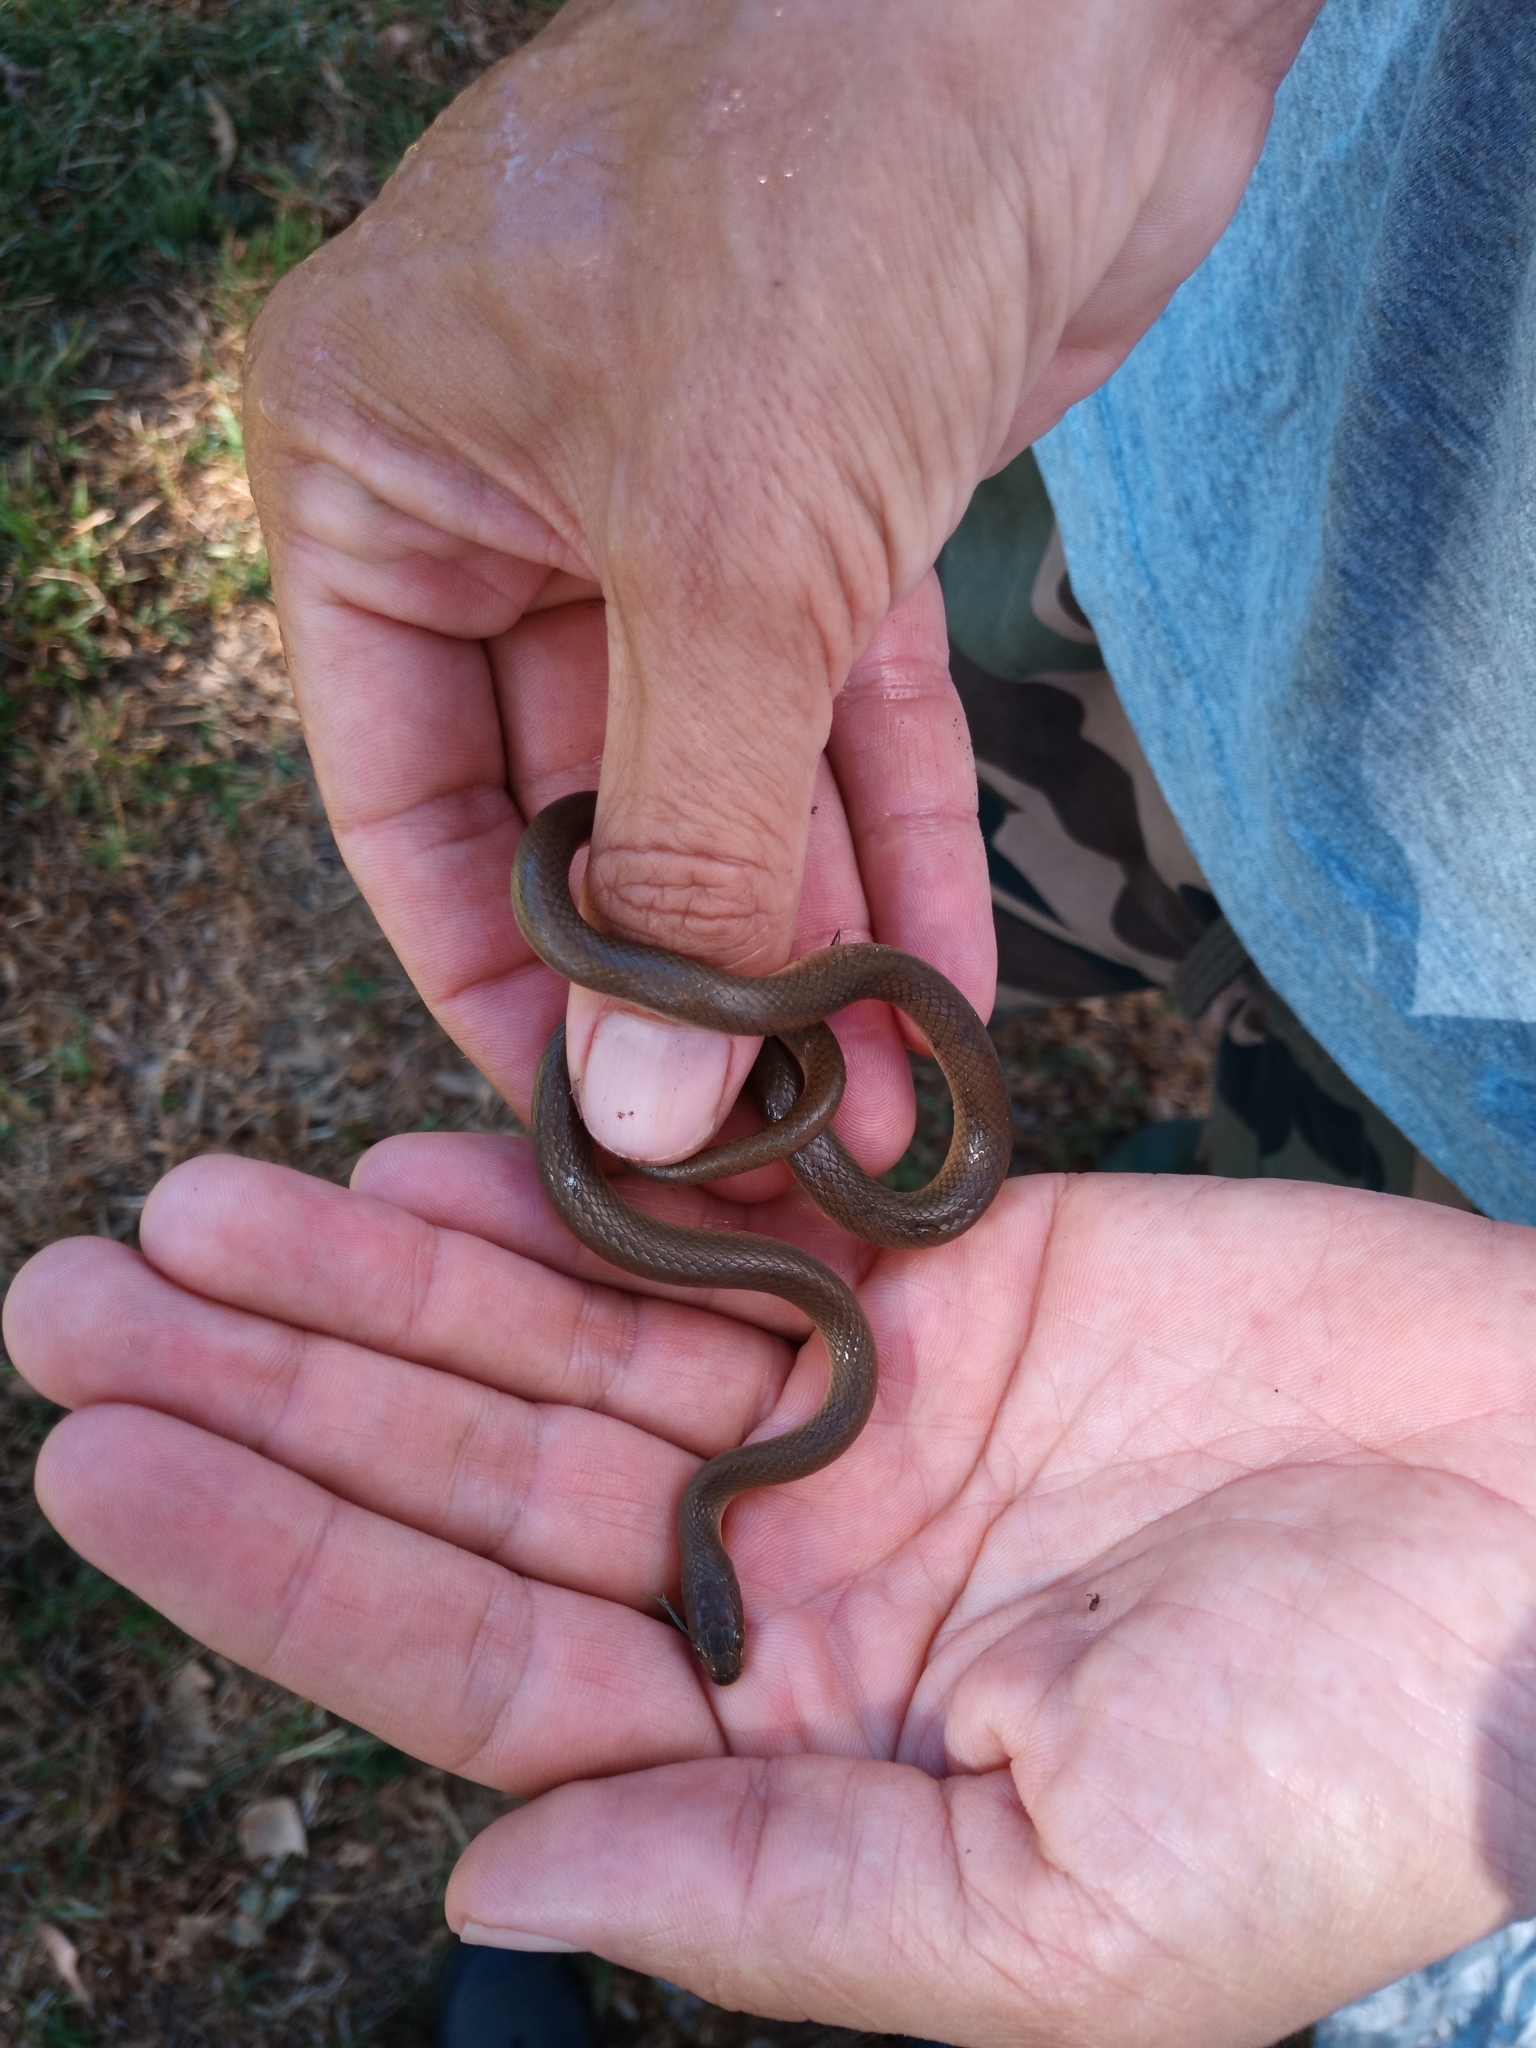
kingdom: Animalia
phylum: Chordata
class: Squamata
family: Lamprophiidae
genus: Lycodonomorphus
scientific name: Lycodonomorphus rufulus
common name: Brown water snake
